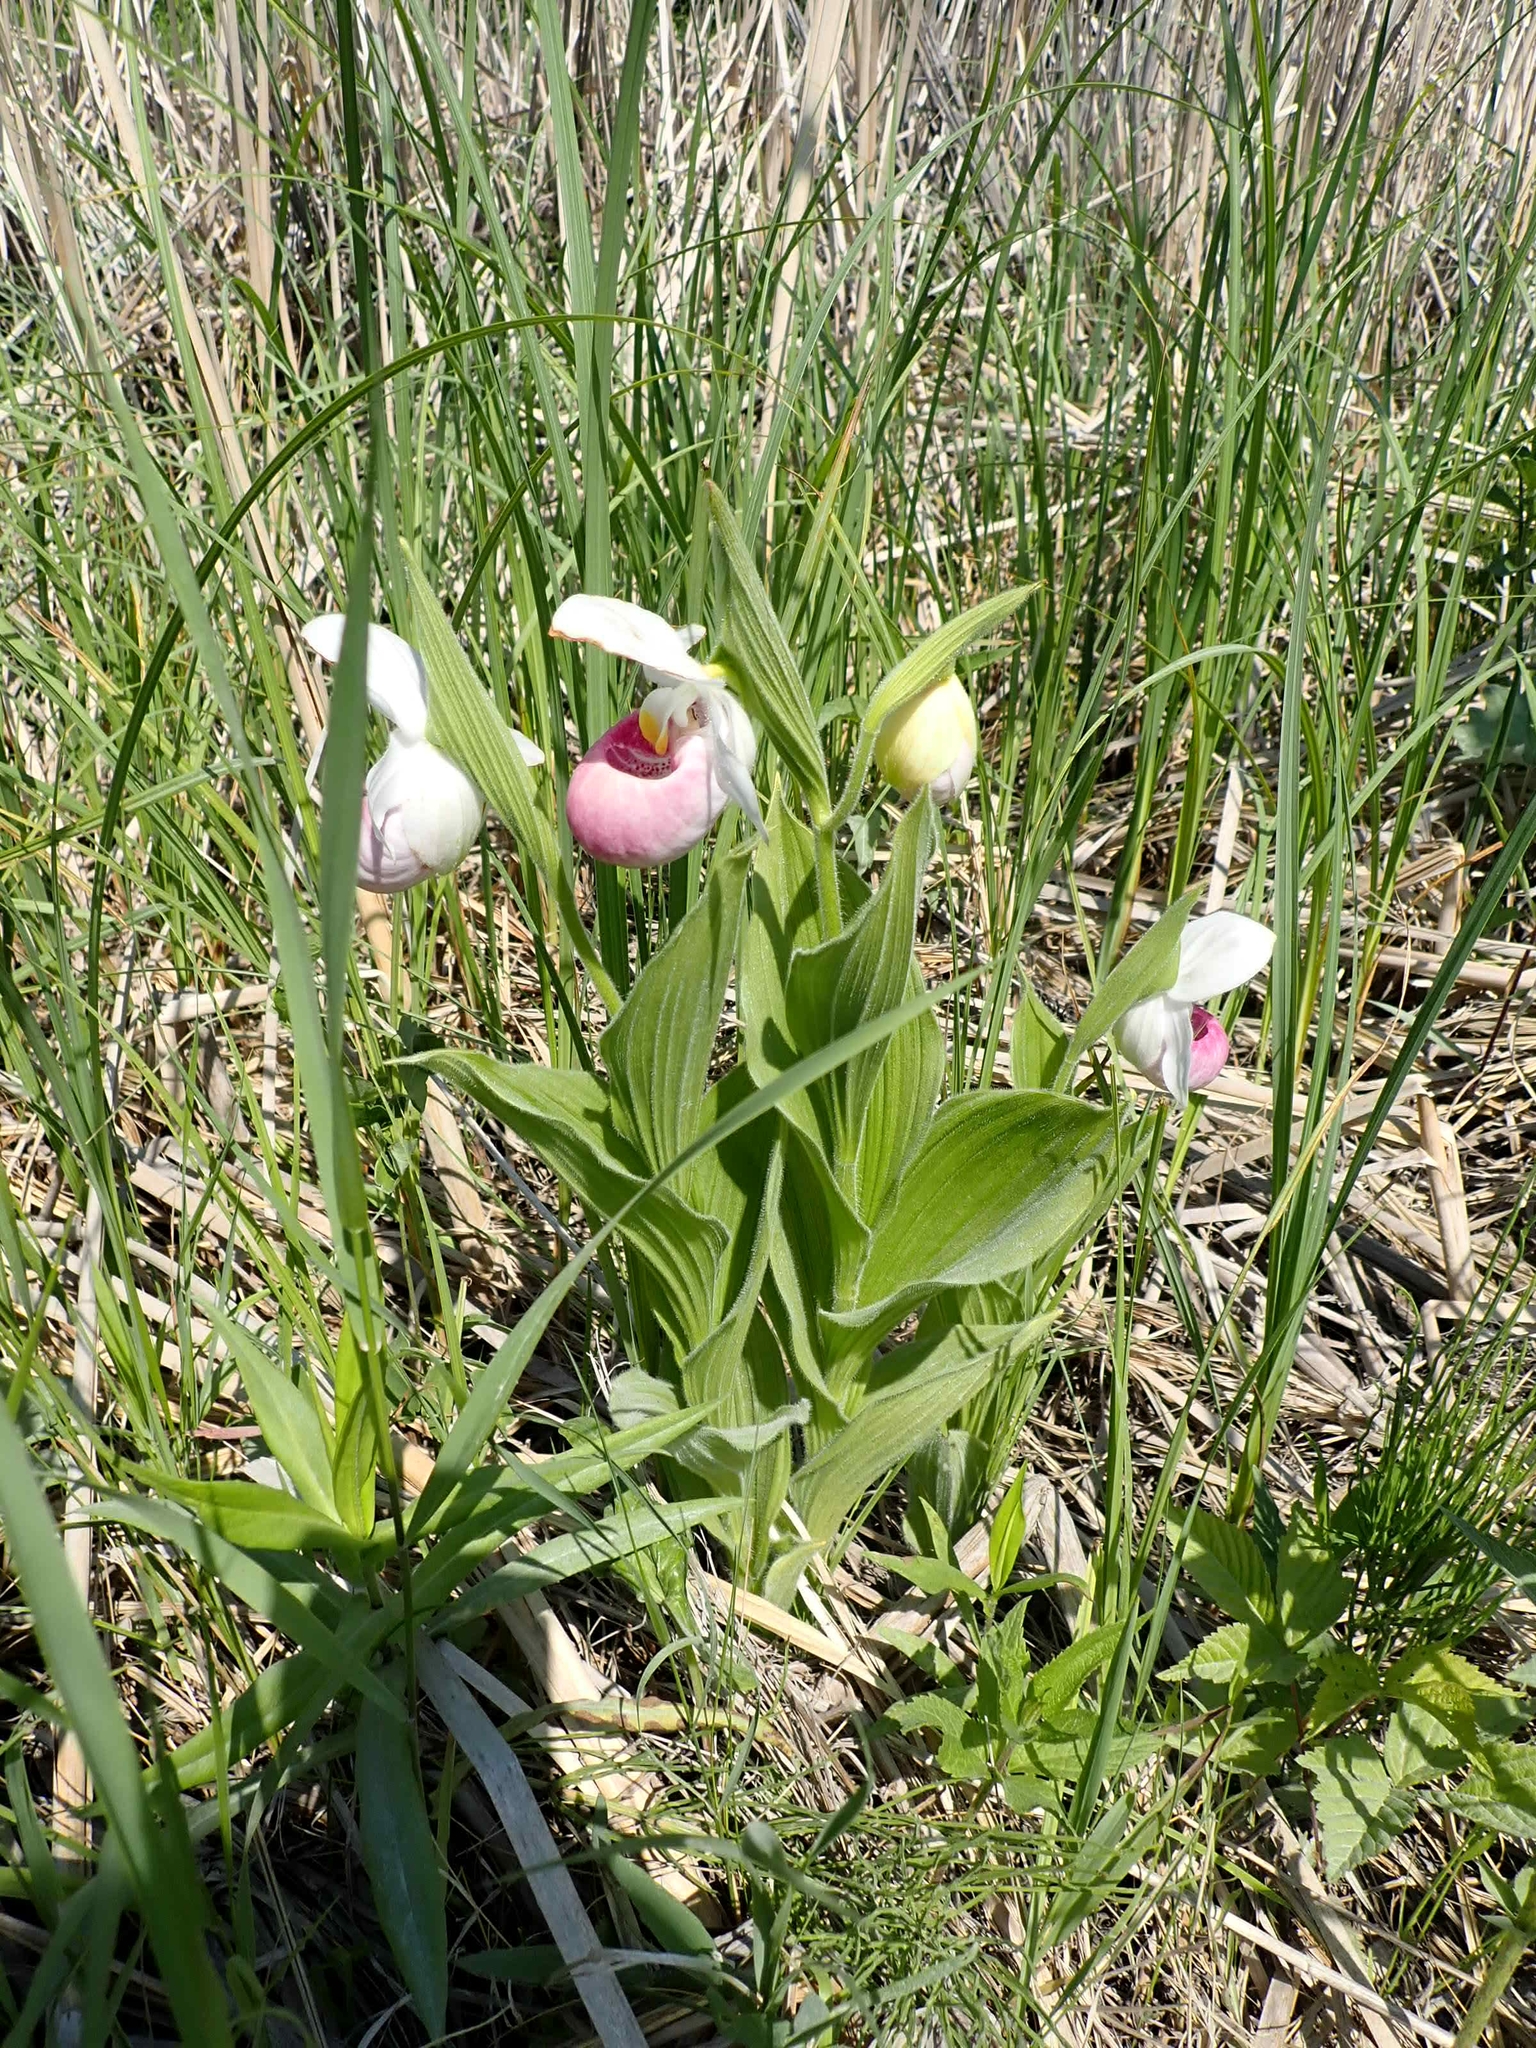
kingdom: Plantae
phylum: Tracheophyta
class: Liliopsida
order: Asparagales
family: Orchidaceae
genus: Cypripedium
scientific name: Cypripedium reginae
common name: Queen lady's-slipper
